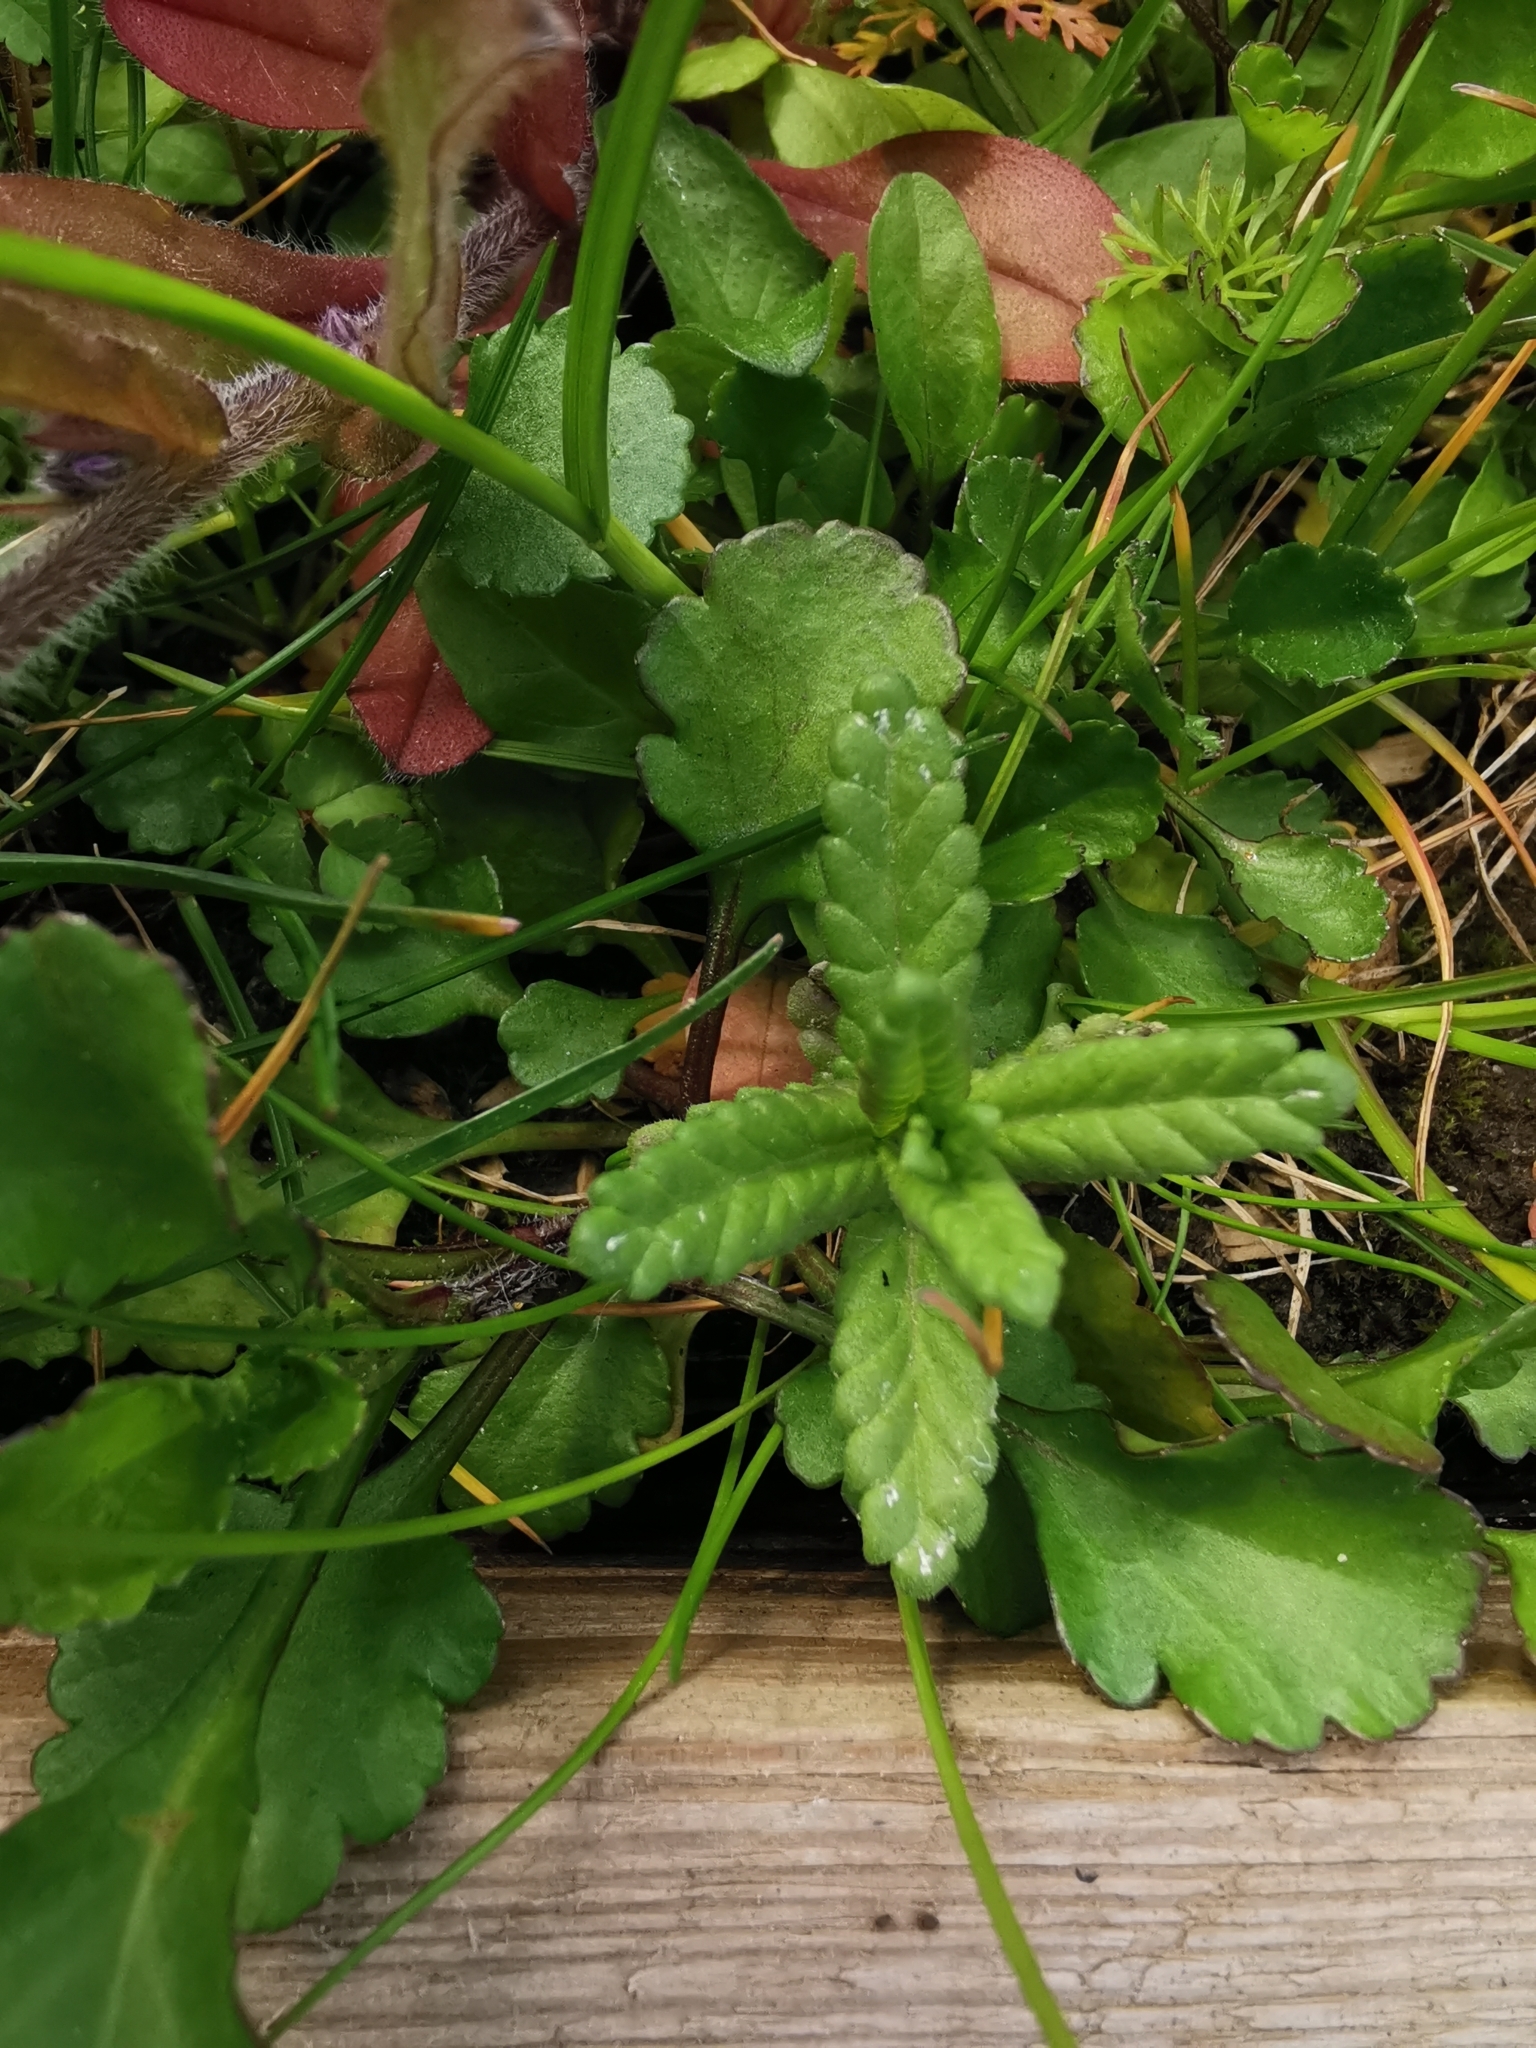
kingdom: Plantae
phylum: Tracheophyta
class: Magnoliopsida
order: Lamiales
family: Orobanchaceae
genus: Rhinanthus
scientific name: Rhinanthus minor
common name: Yellow-rattle
